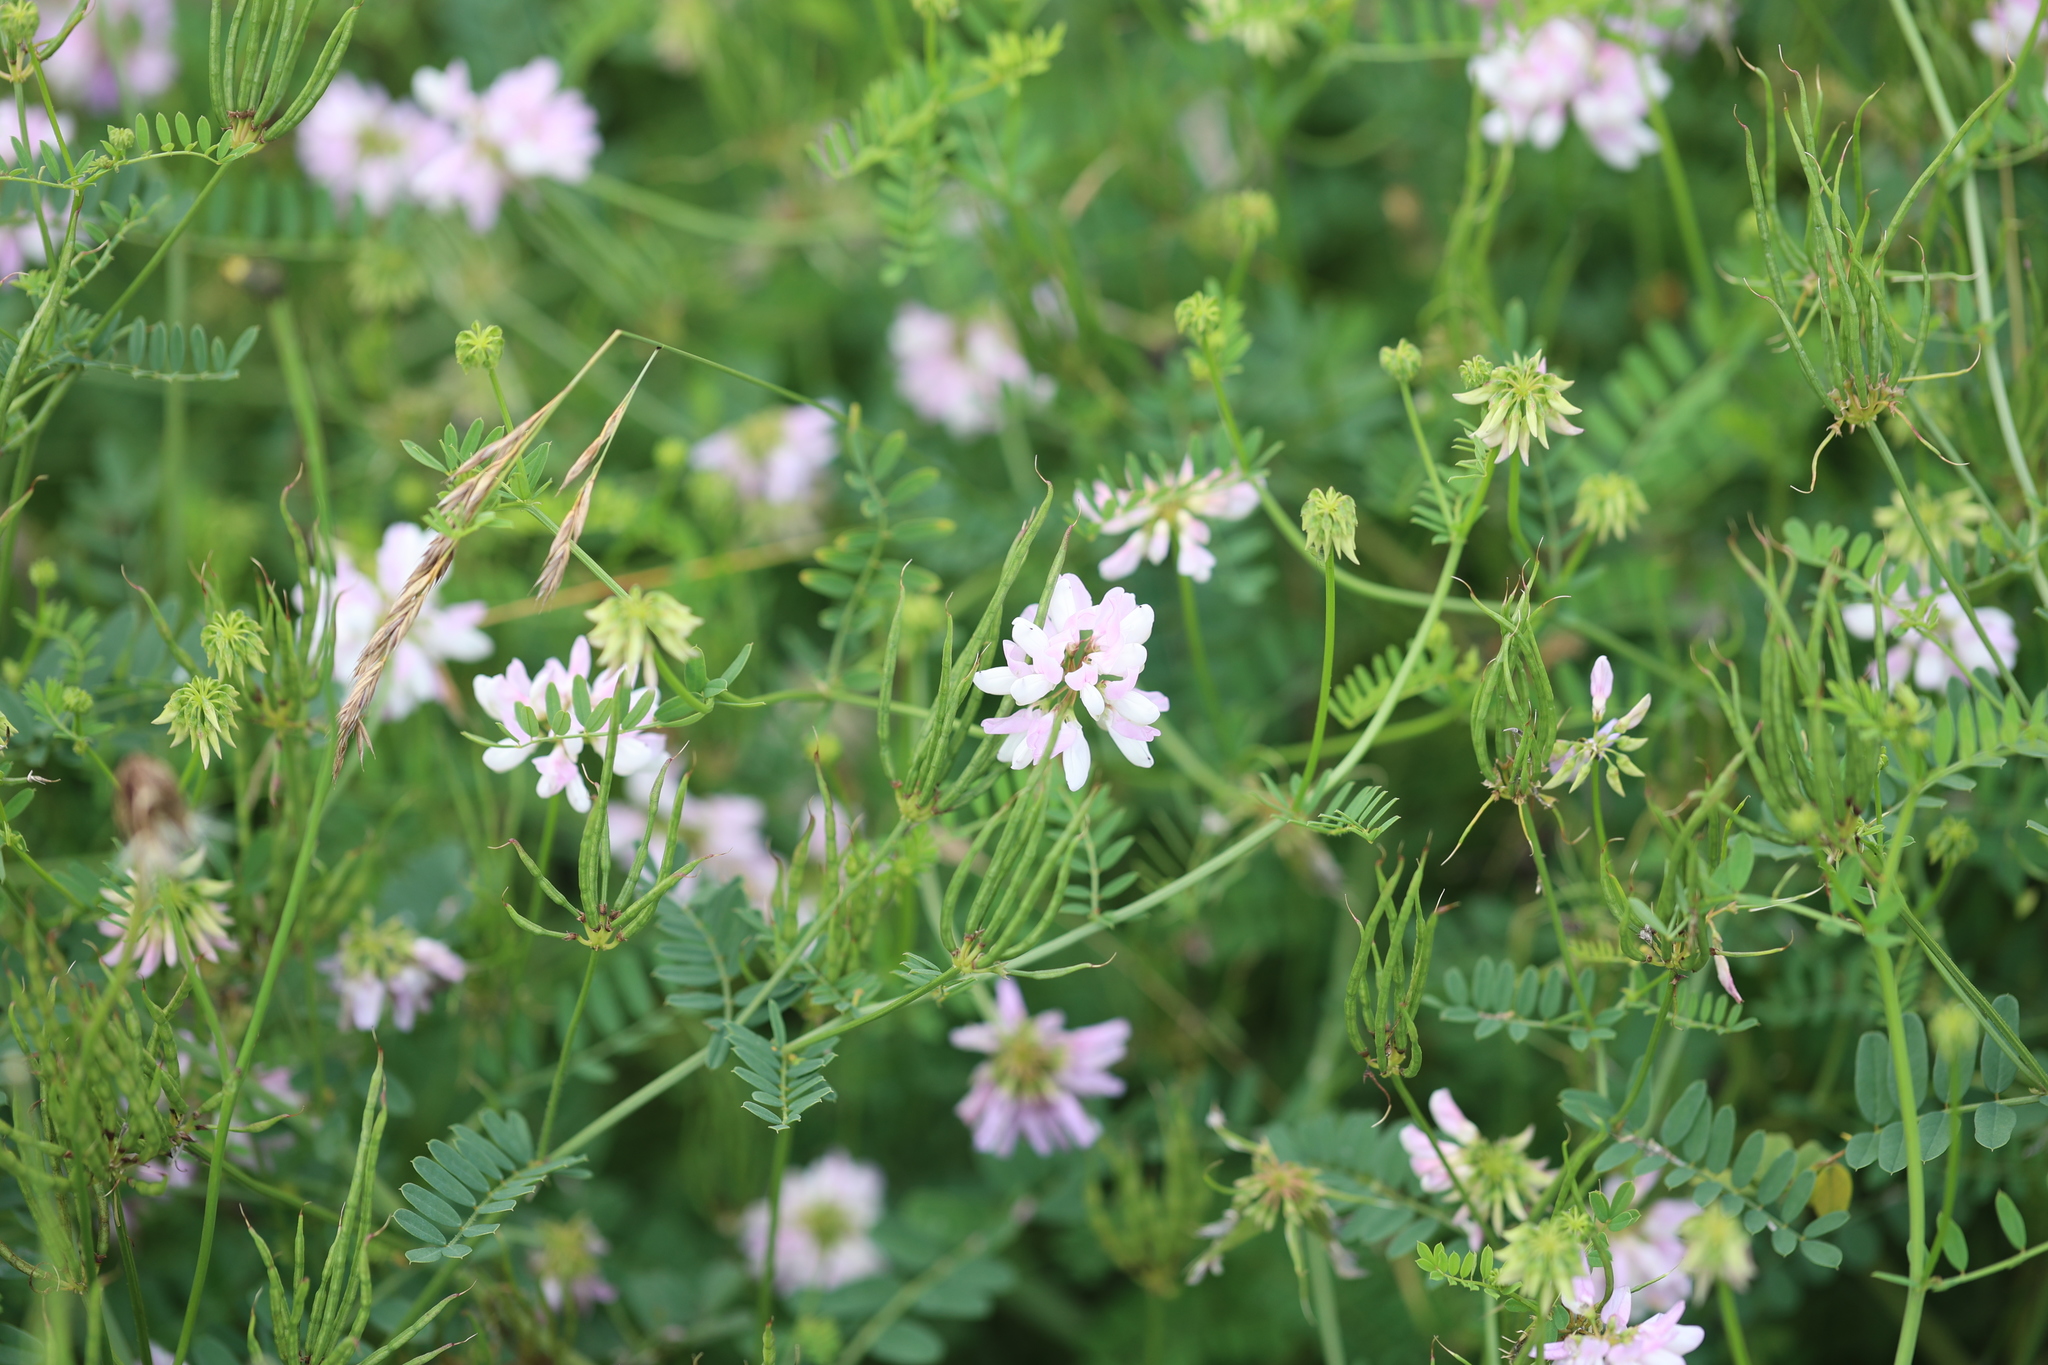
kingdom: Plantae
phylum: Tracheophyta
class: Magnoliopsida
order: Fabales
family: Fabaceae
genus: Coronilla
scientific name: Coronilla varia
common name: Crownvetch
